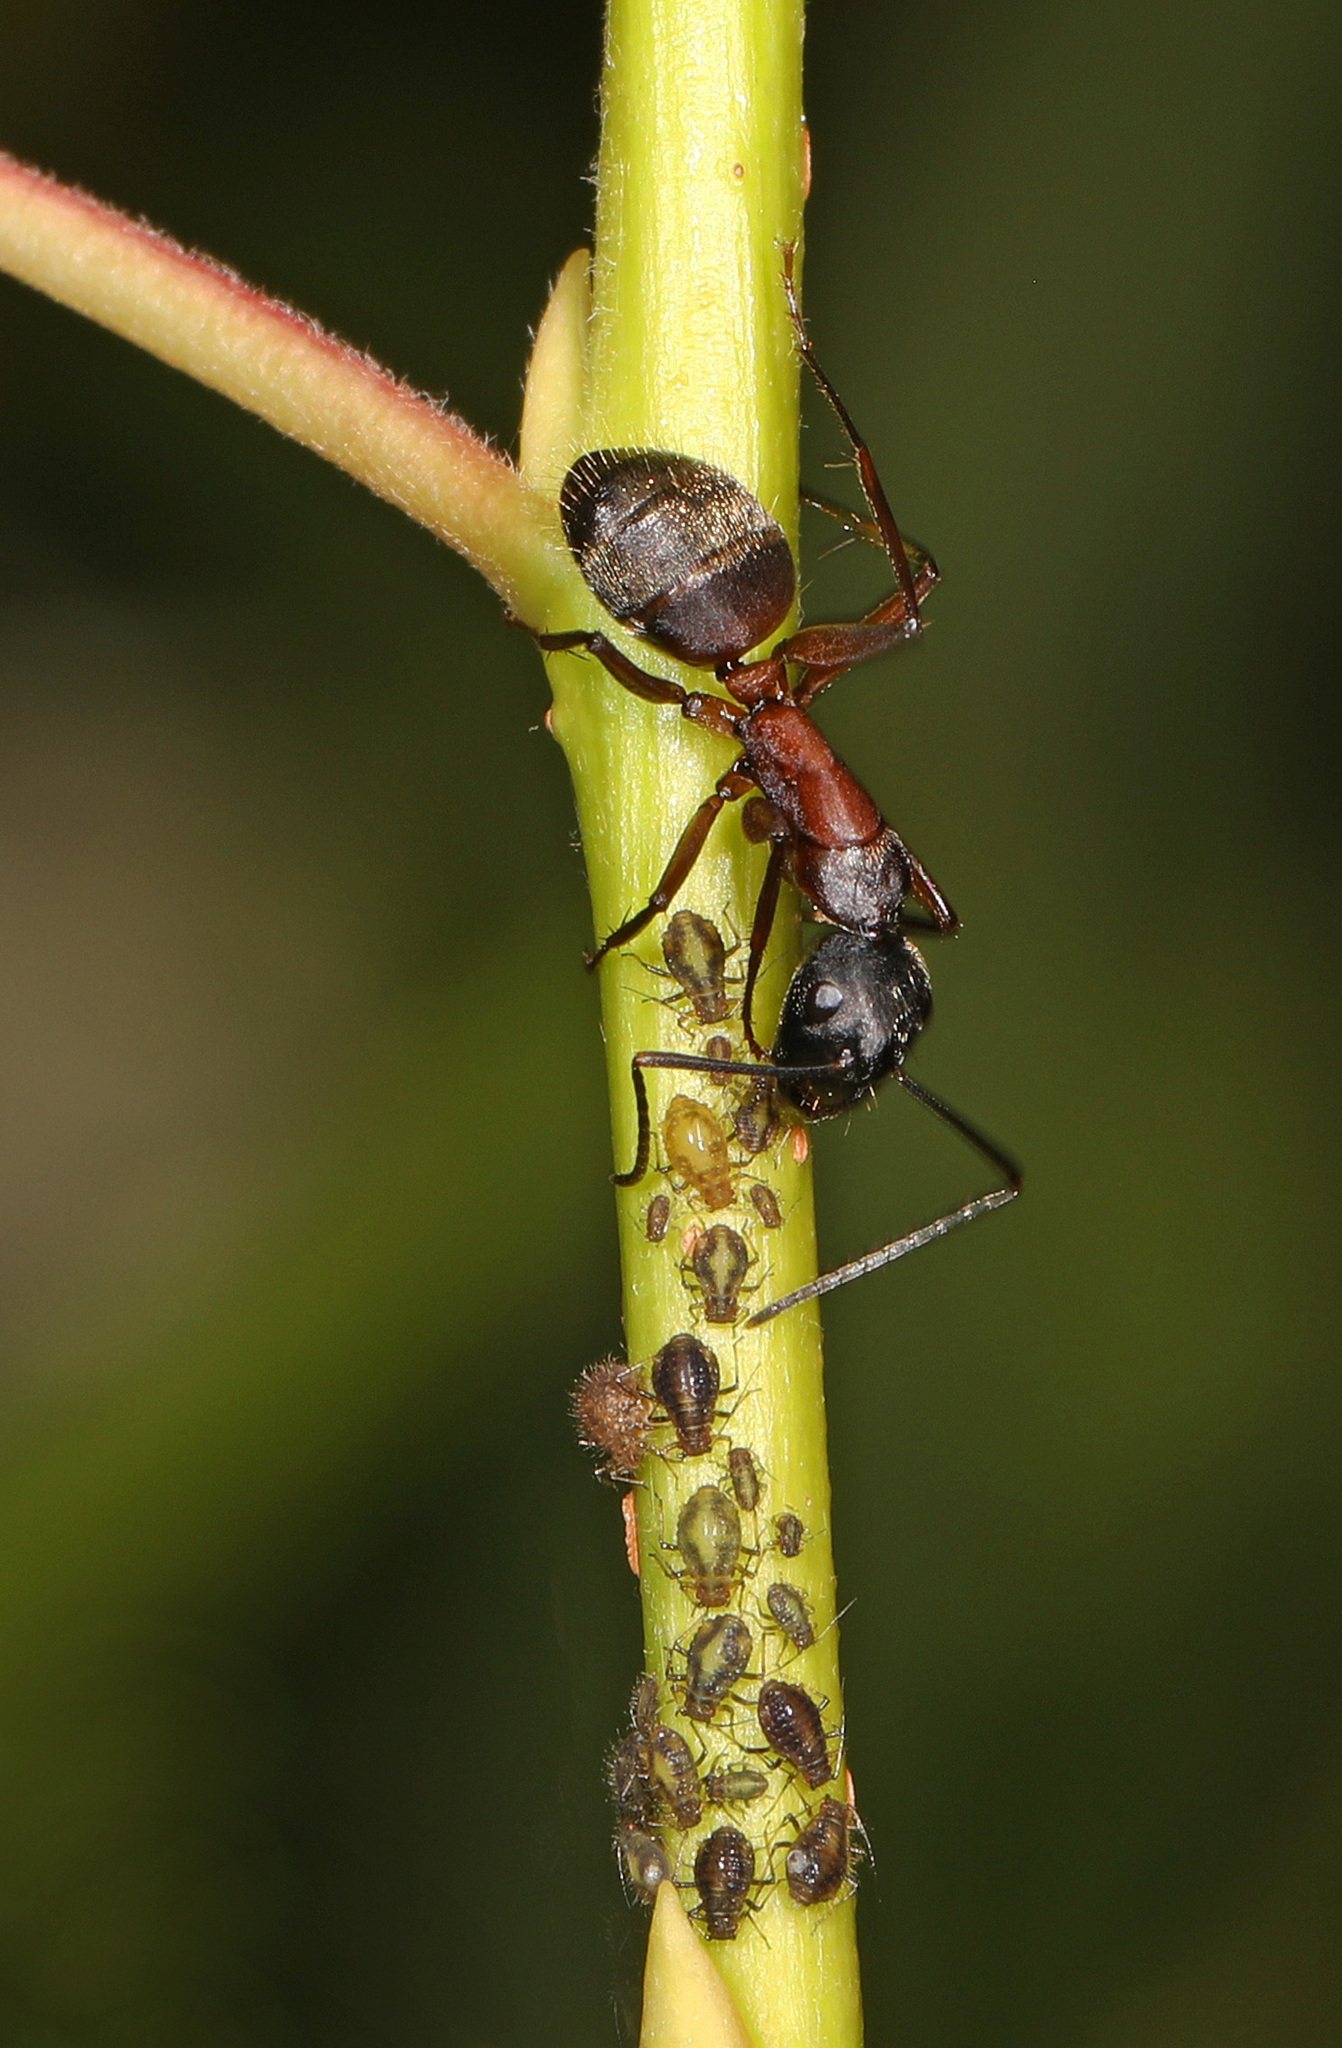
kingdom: Animalia
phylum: Arthropoda
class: Insecta
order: Hymenoptera
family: Formicidae
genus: Camponotus
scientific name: Camponotus chromaiodes
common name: Red carpenter ant
